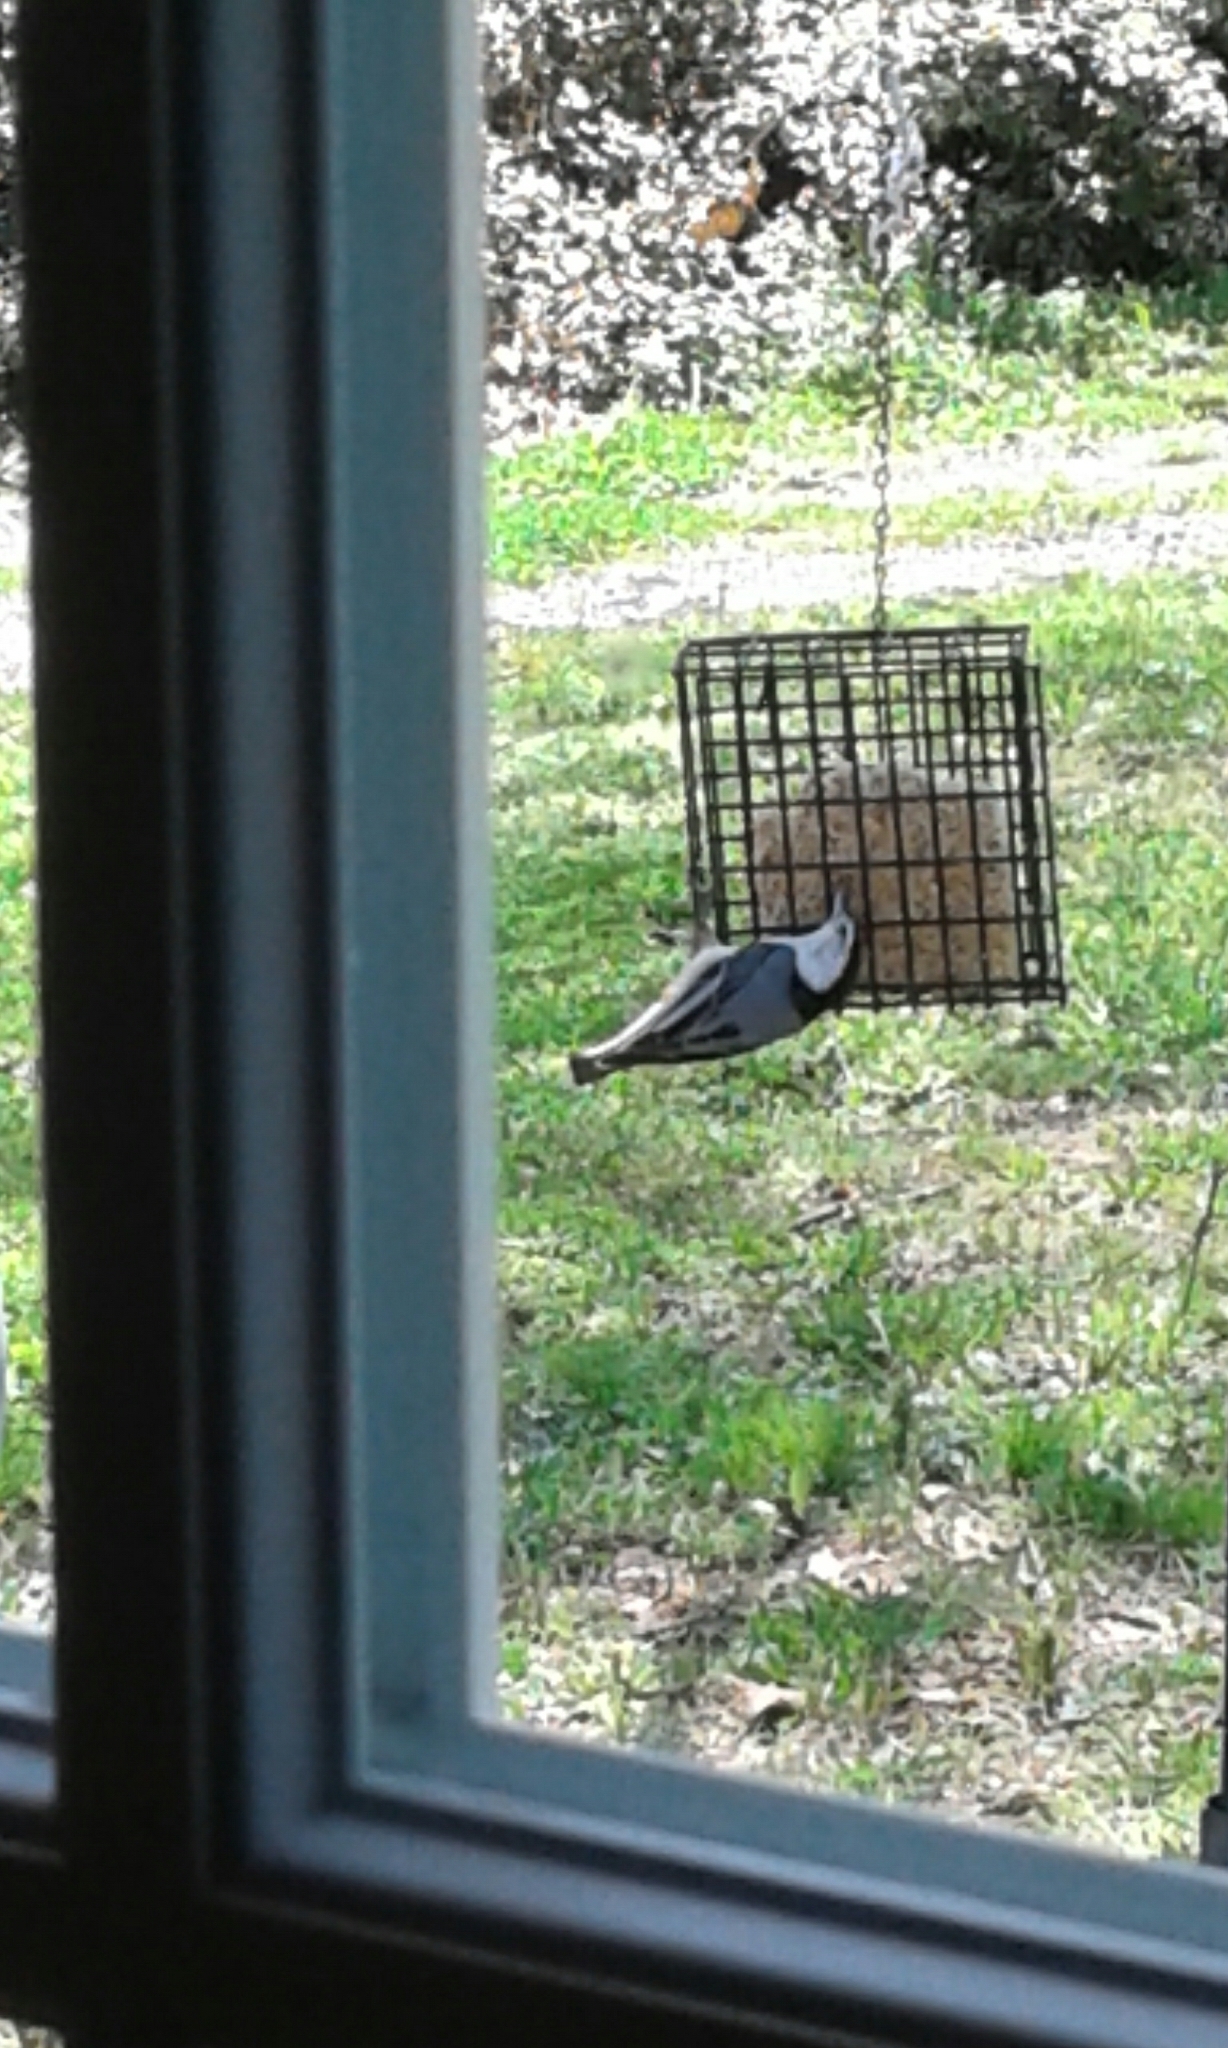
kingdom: Animalia
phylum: Chordata
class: Aves
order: Passeriformes
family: Sittidae
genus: Sitta
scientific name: Sitta carolinensis
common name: White-breasted nuthatch
